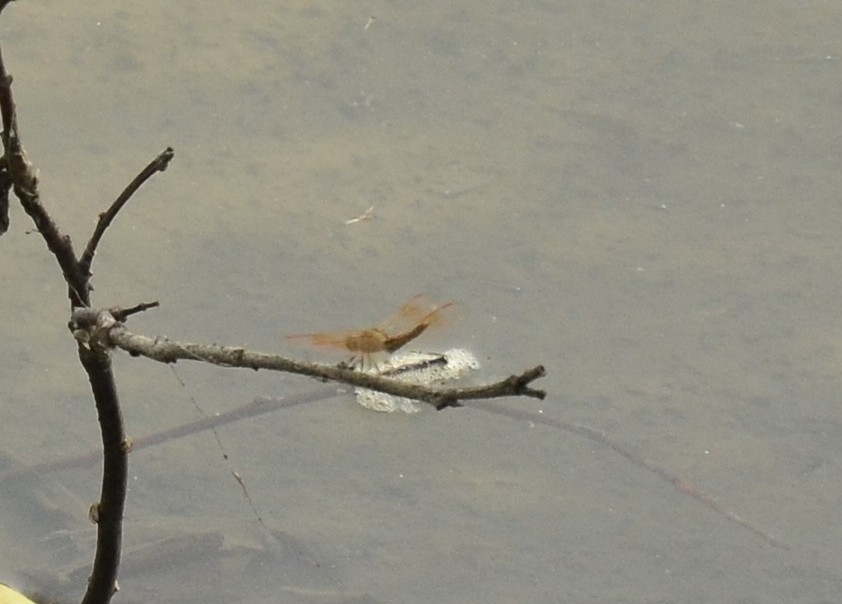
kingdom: Animalia
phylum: Arthropoda
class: Insecta
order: Odonata
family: Libellulidae
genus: Brachythemis
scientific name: Brachythemis contaminata
